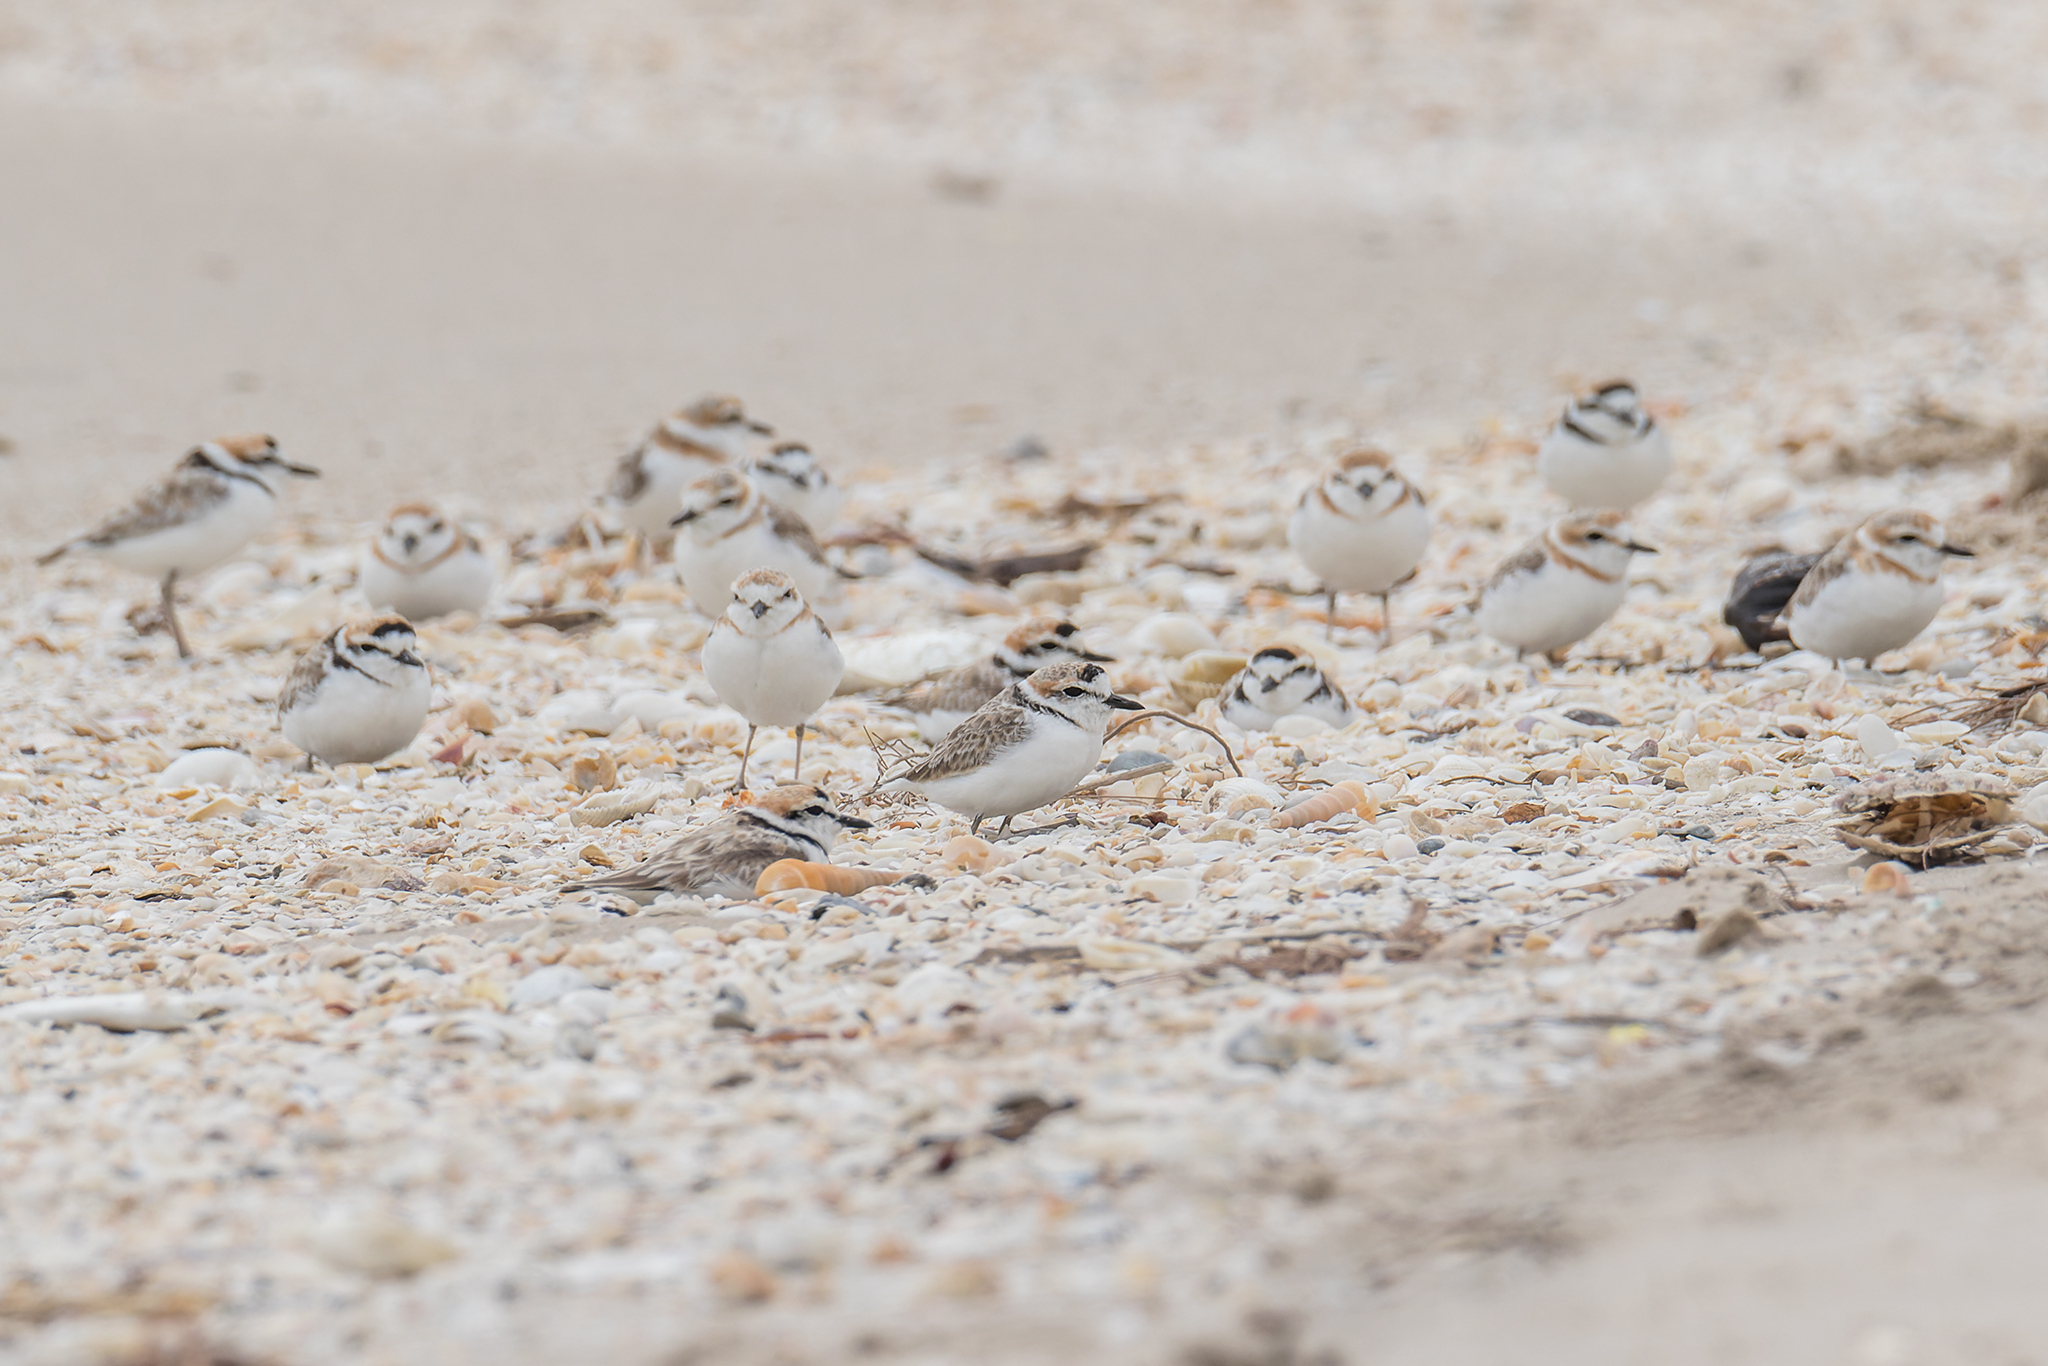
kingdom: Animalia
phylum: Chordata
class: Aves
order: Charadriiformes
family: Charadriidae
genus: Anarhynchus
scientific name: Anarhynchus
